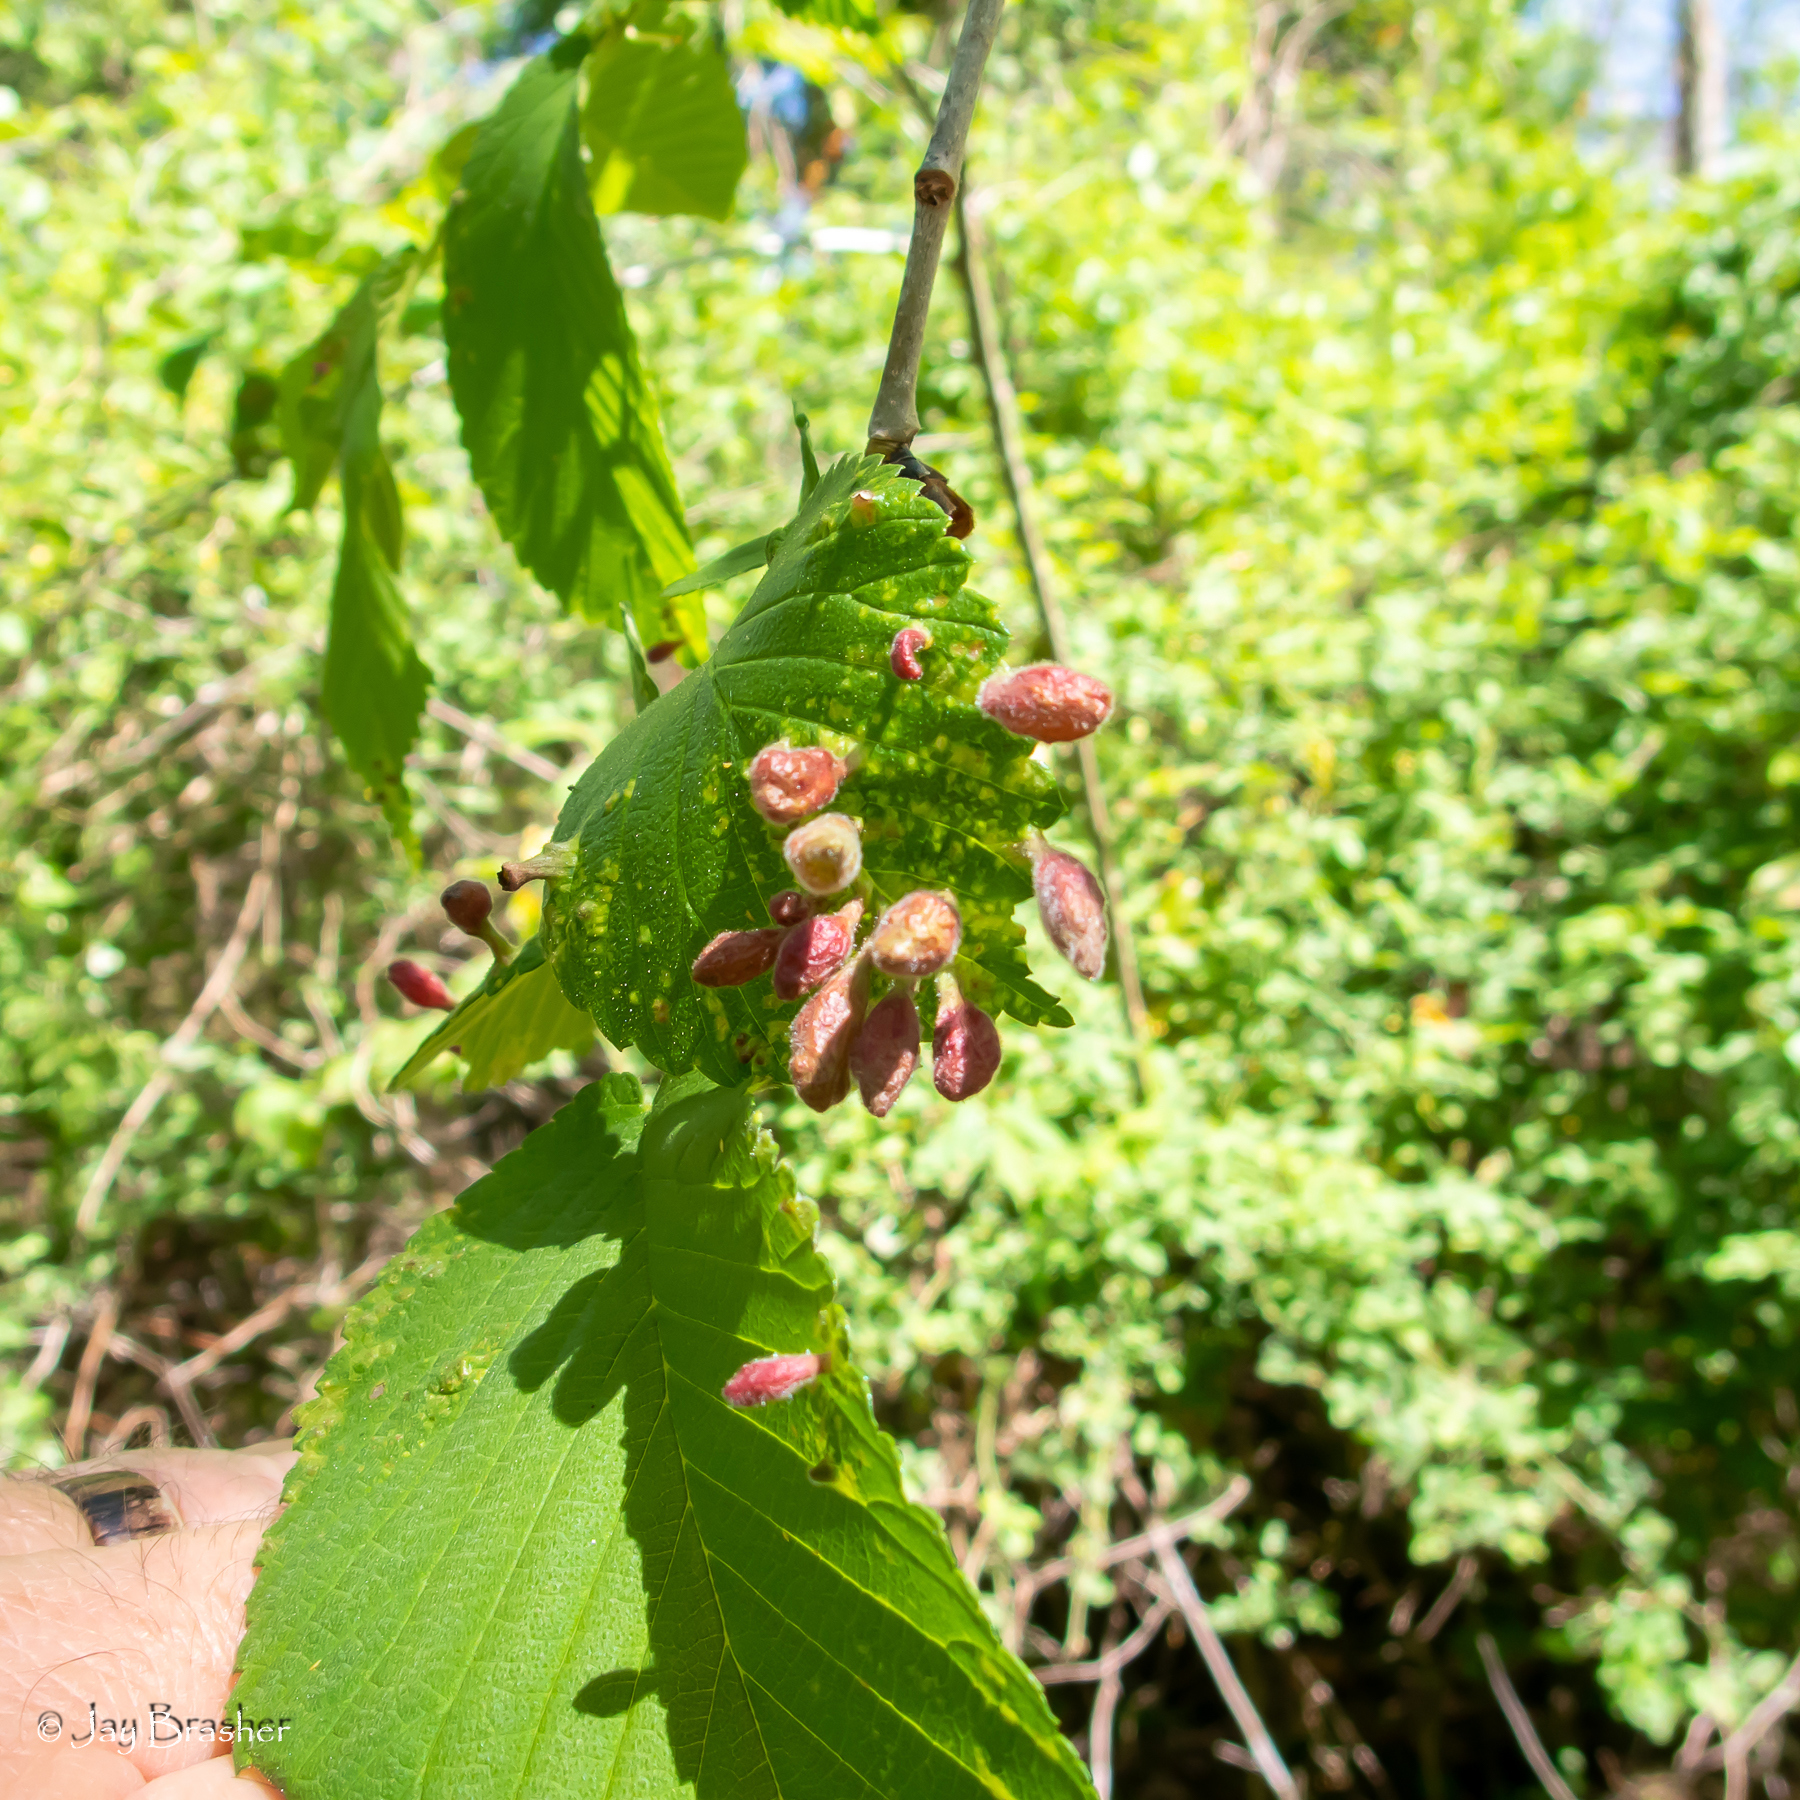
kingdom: Animalia
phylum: Arthropoda
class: Insecta
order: Hemiptera
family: Aphididae
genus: Tetraneura
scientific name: Tetraneura nigriabdominalis
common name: Aphid
